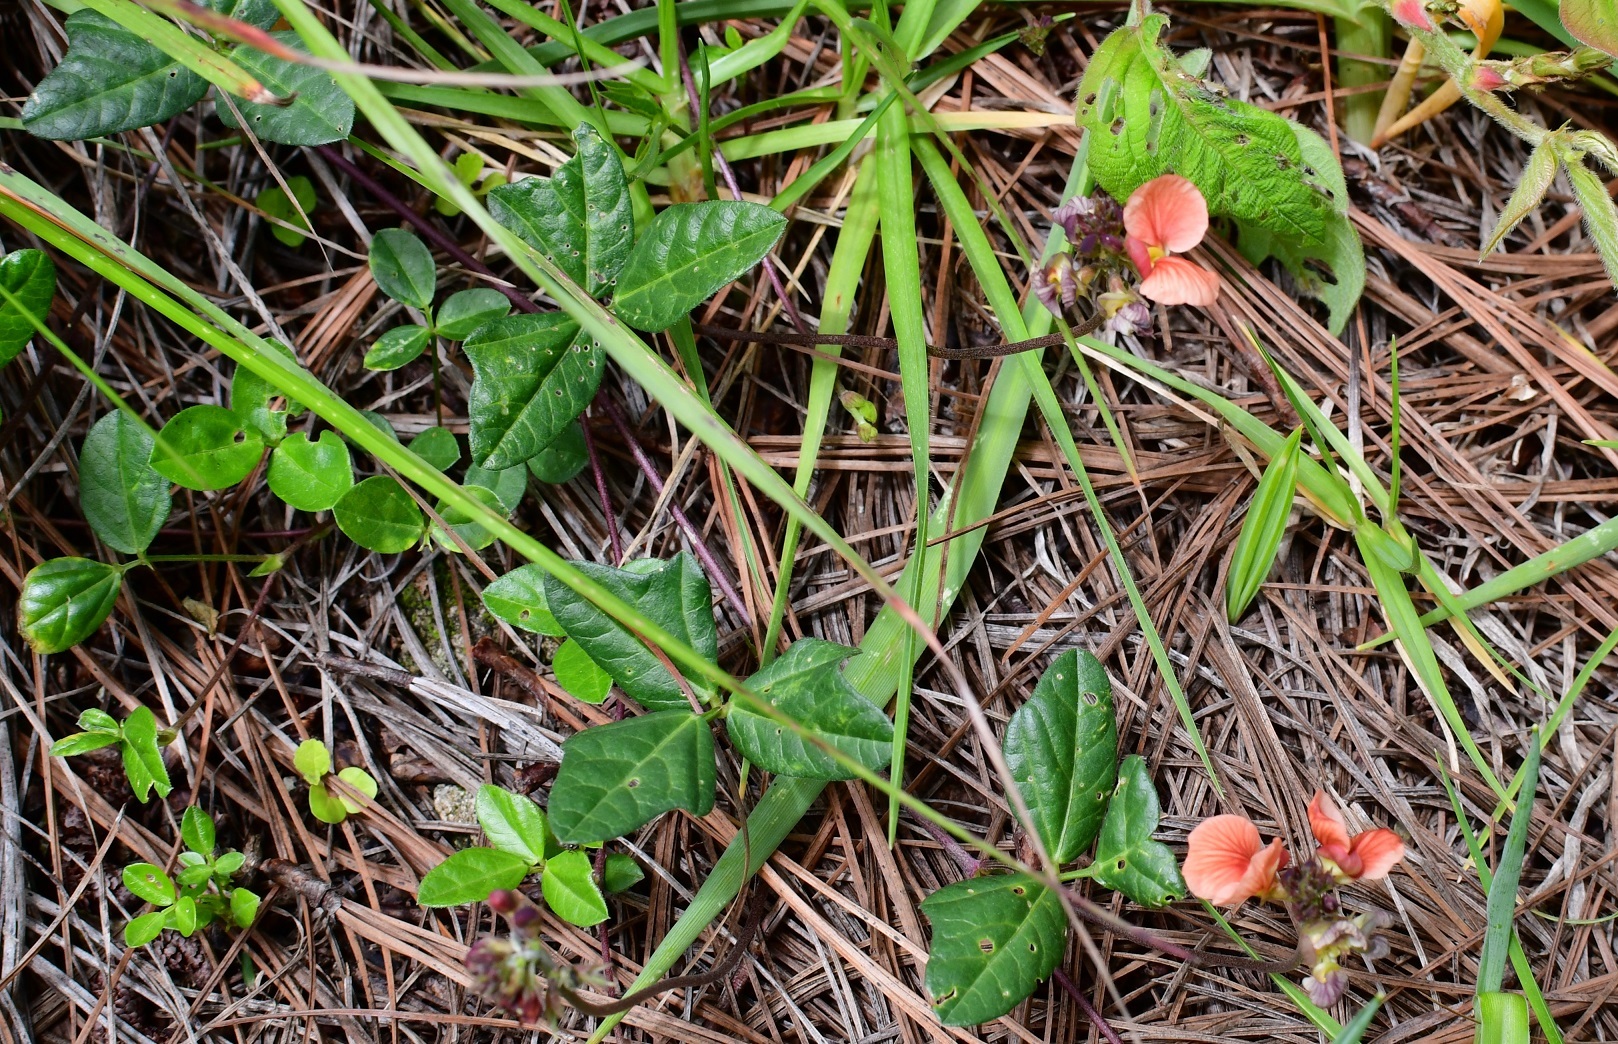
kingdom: Plantae
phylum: Tracheophyta
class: Magnoliopsida
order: Fabales
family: Fabaceae
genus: Macroptilium
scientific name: Macroptilium gibbosifolium
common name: Variableleaf bushbean
